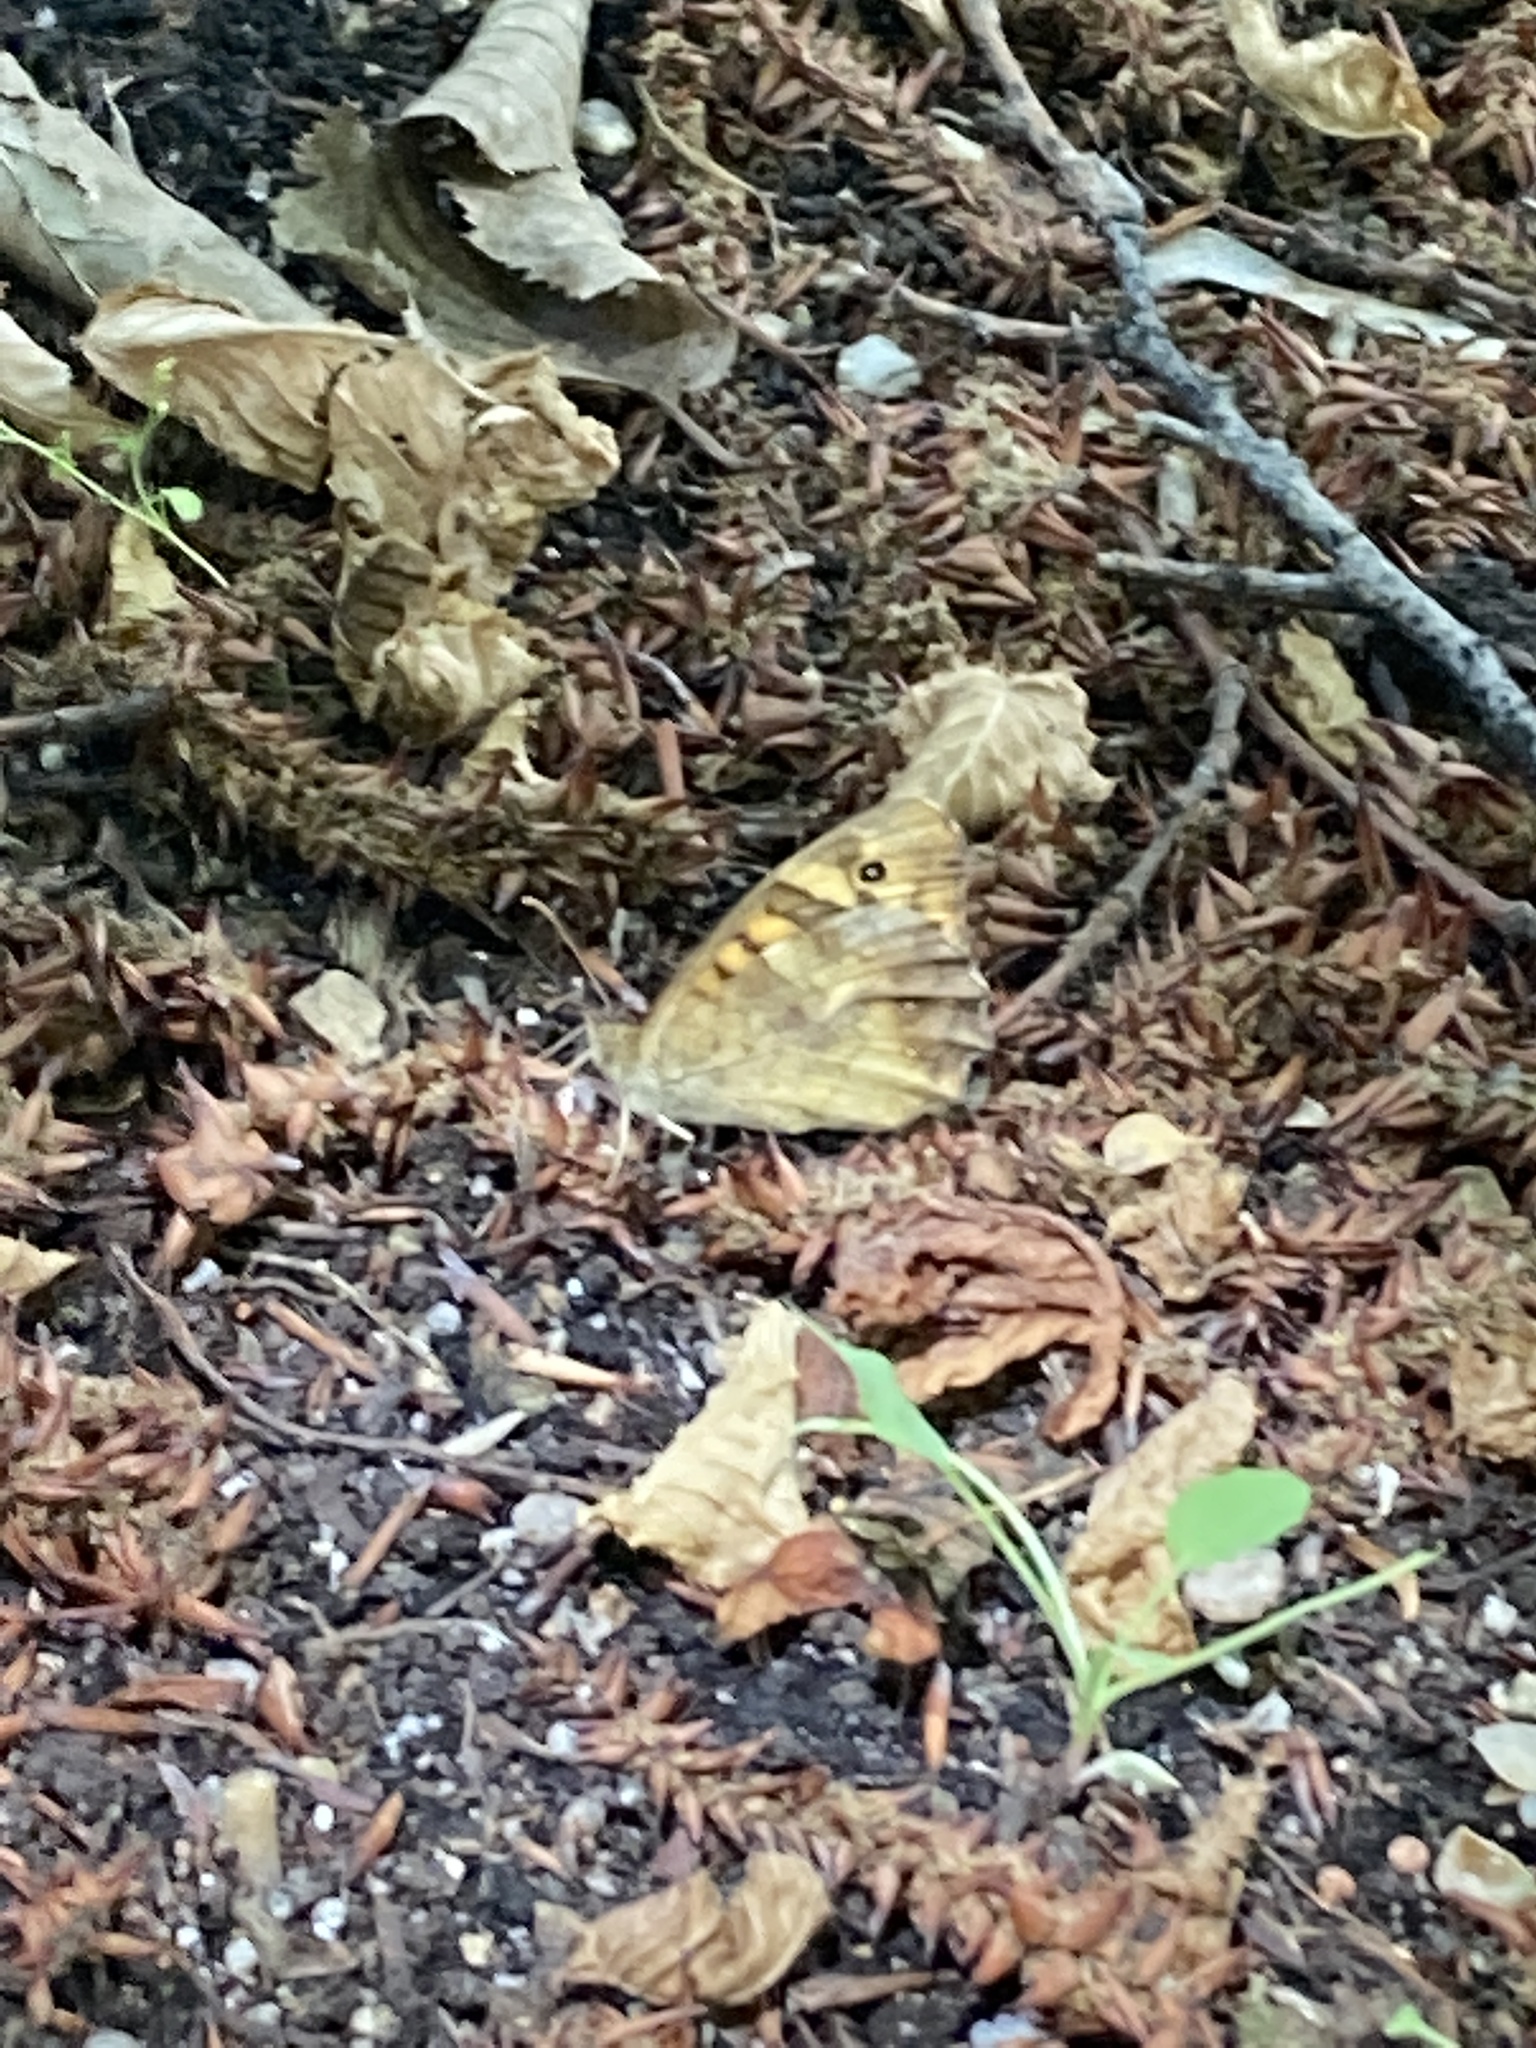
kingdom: Animalia
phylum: Arthropoda
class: Insecta
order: Lepidoptera
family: Nymphalidae
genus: Pararge
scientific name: Pararge aegeria
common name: Speckled wood
